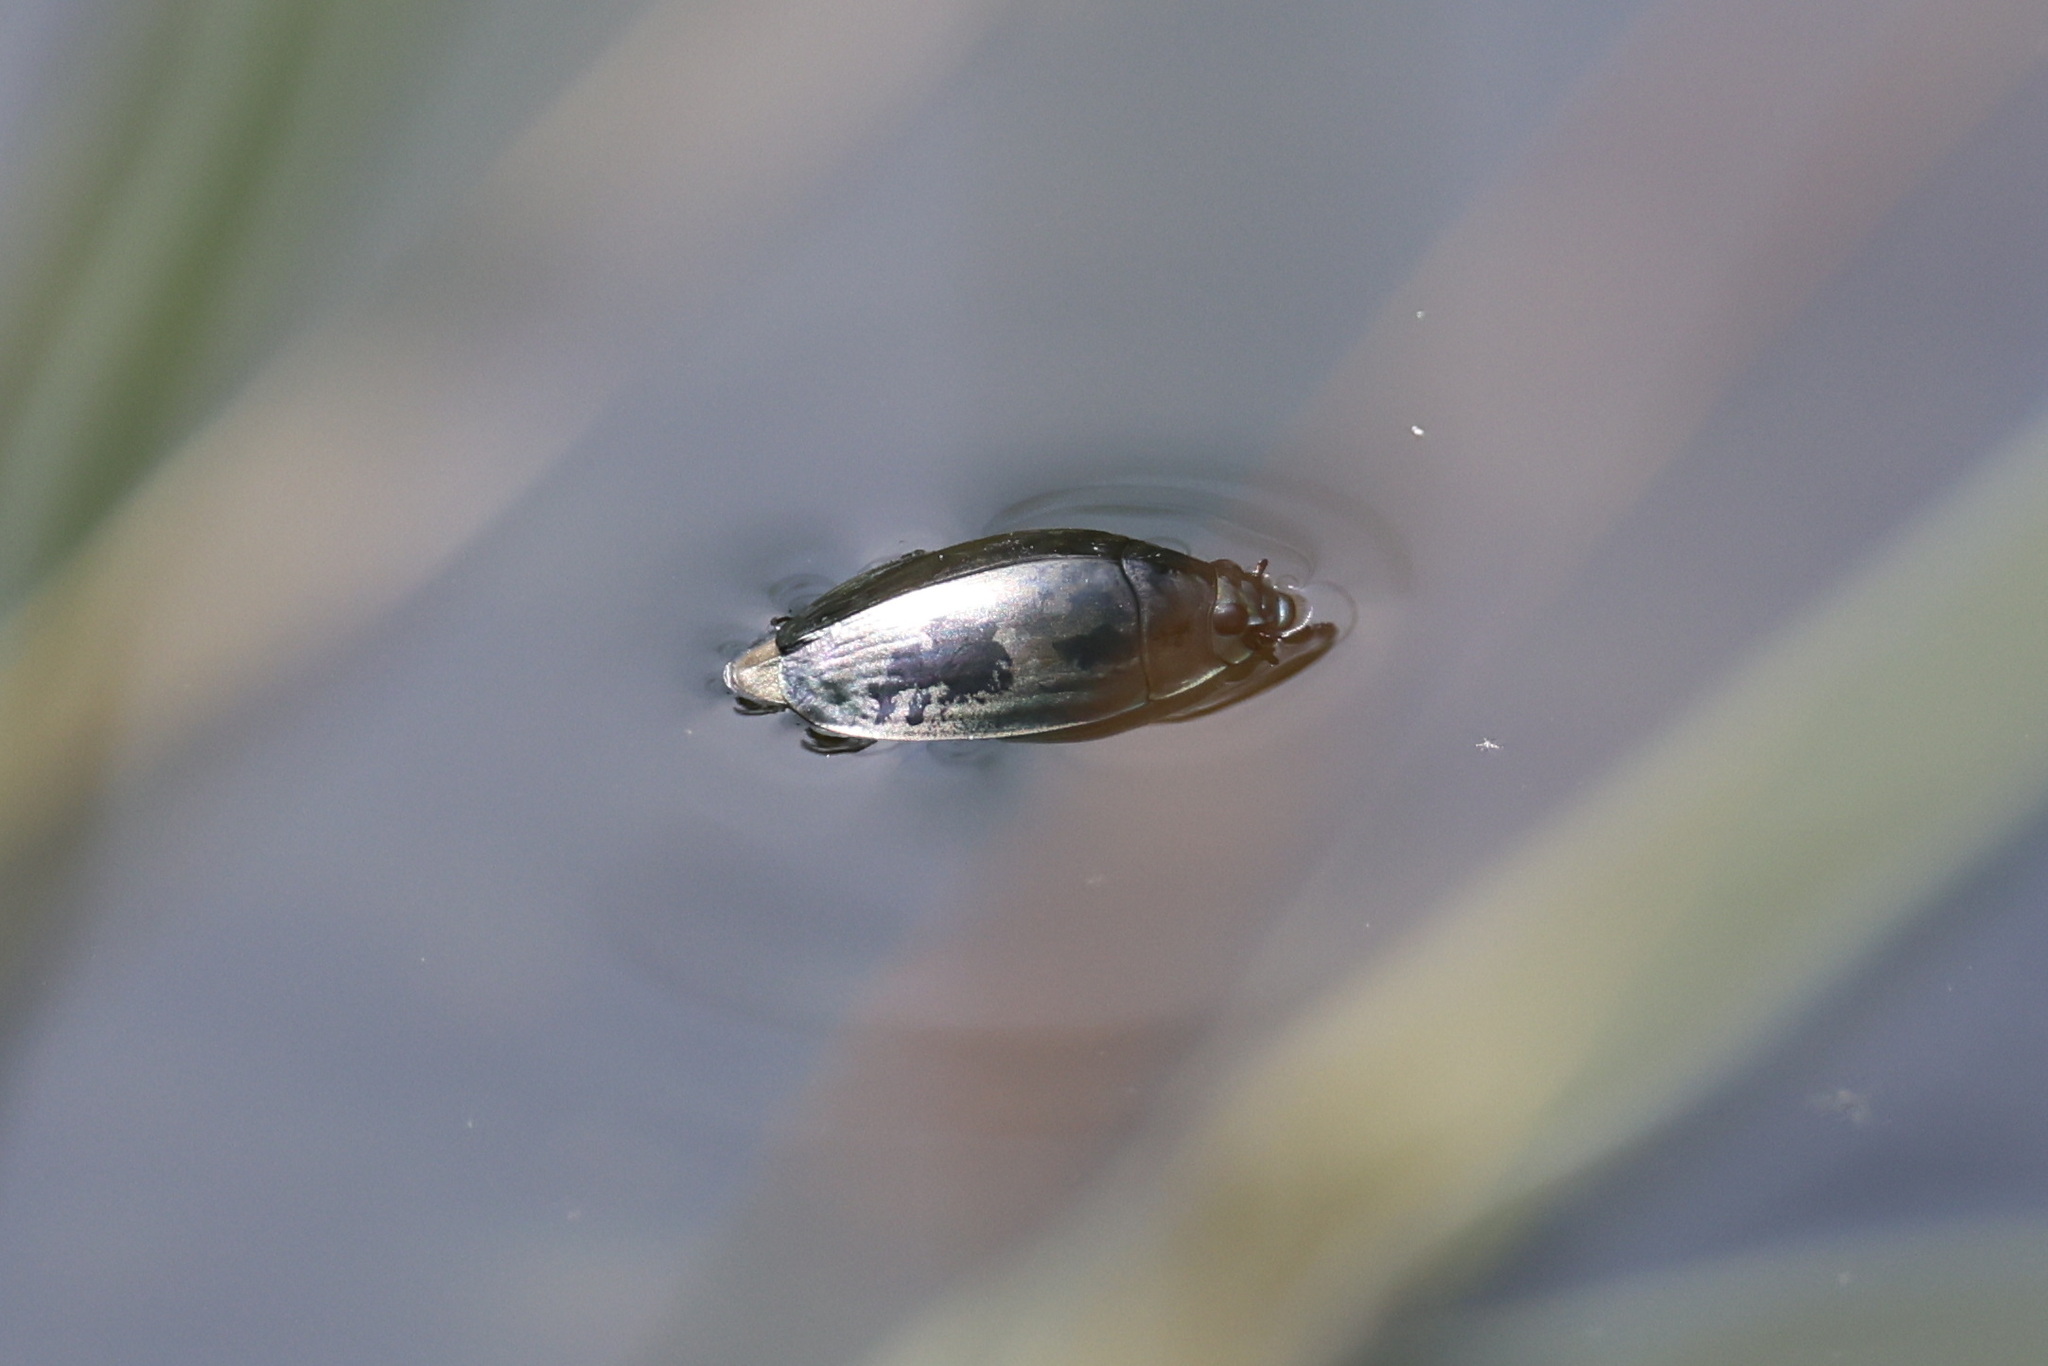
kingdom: Animalia
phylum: Arthropoda
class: Insecta
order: Coleoptera
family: Gyrinidae
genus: Dineutus
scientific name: Dineutus
